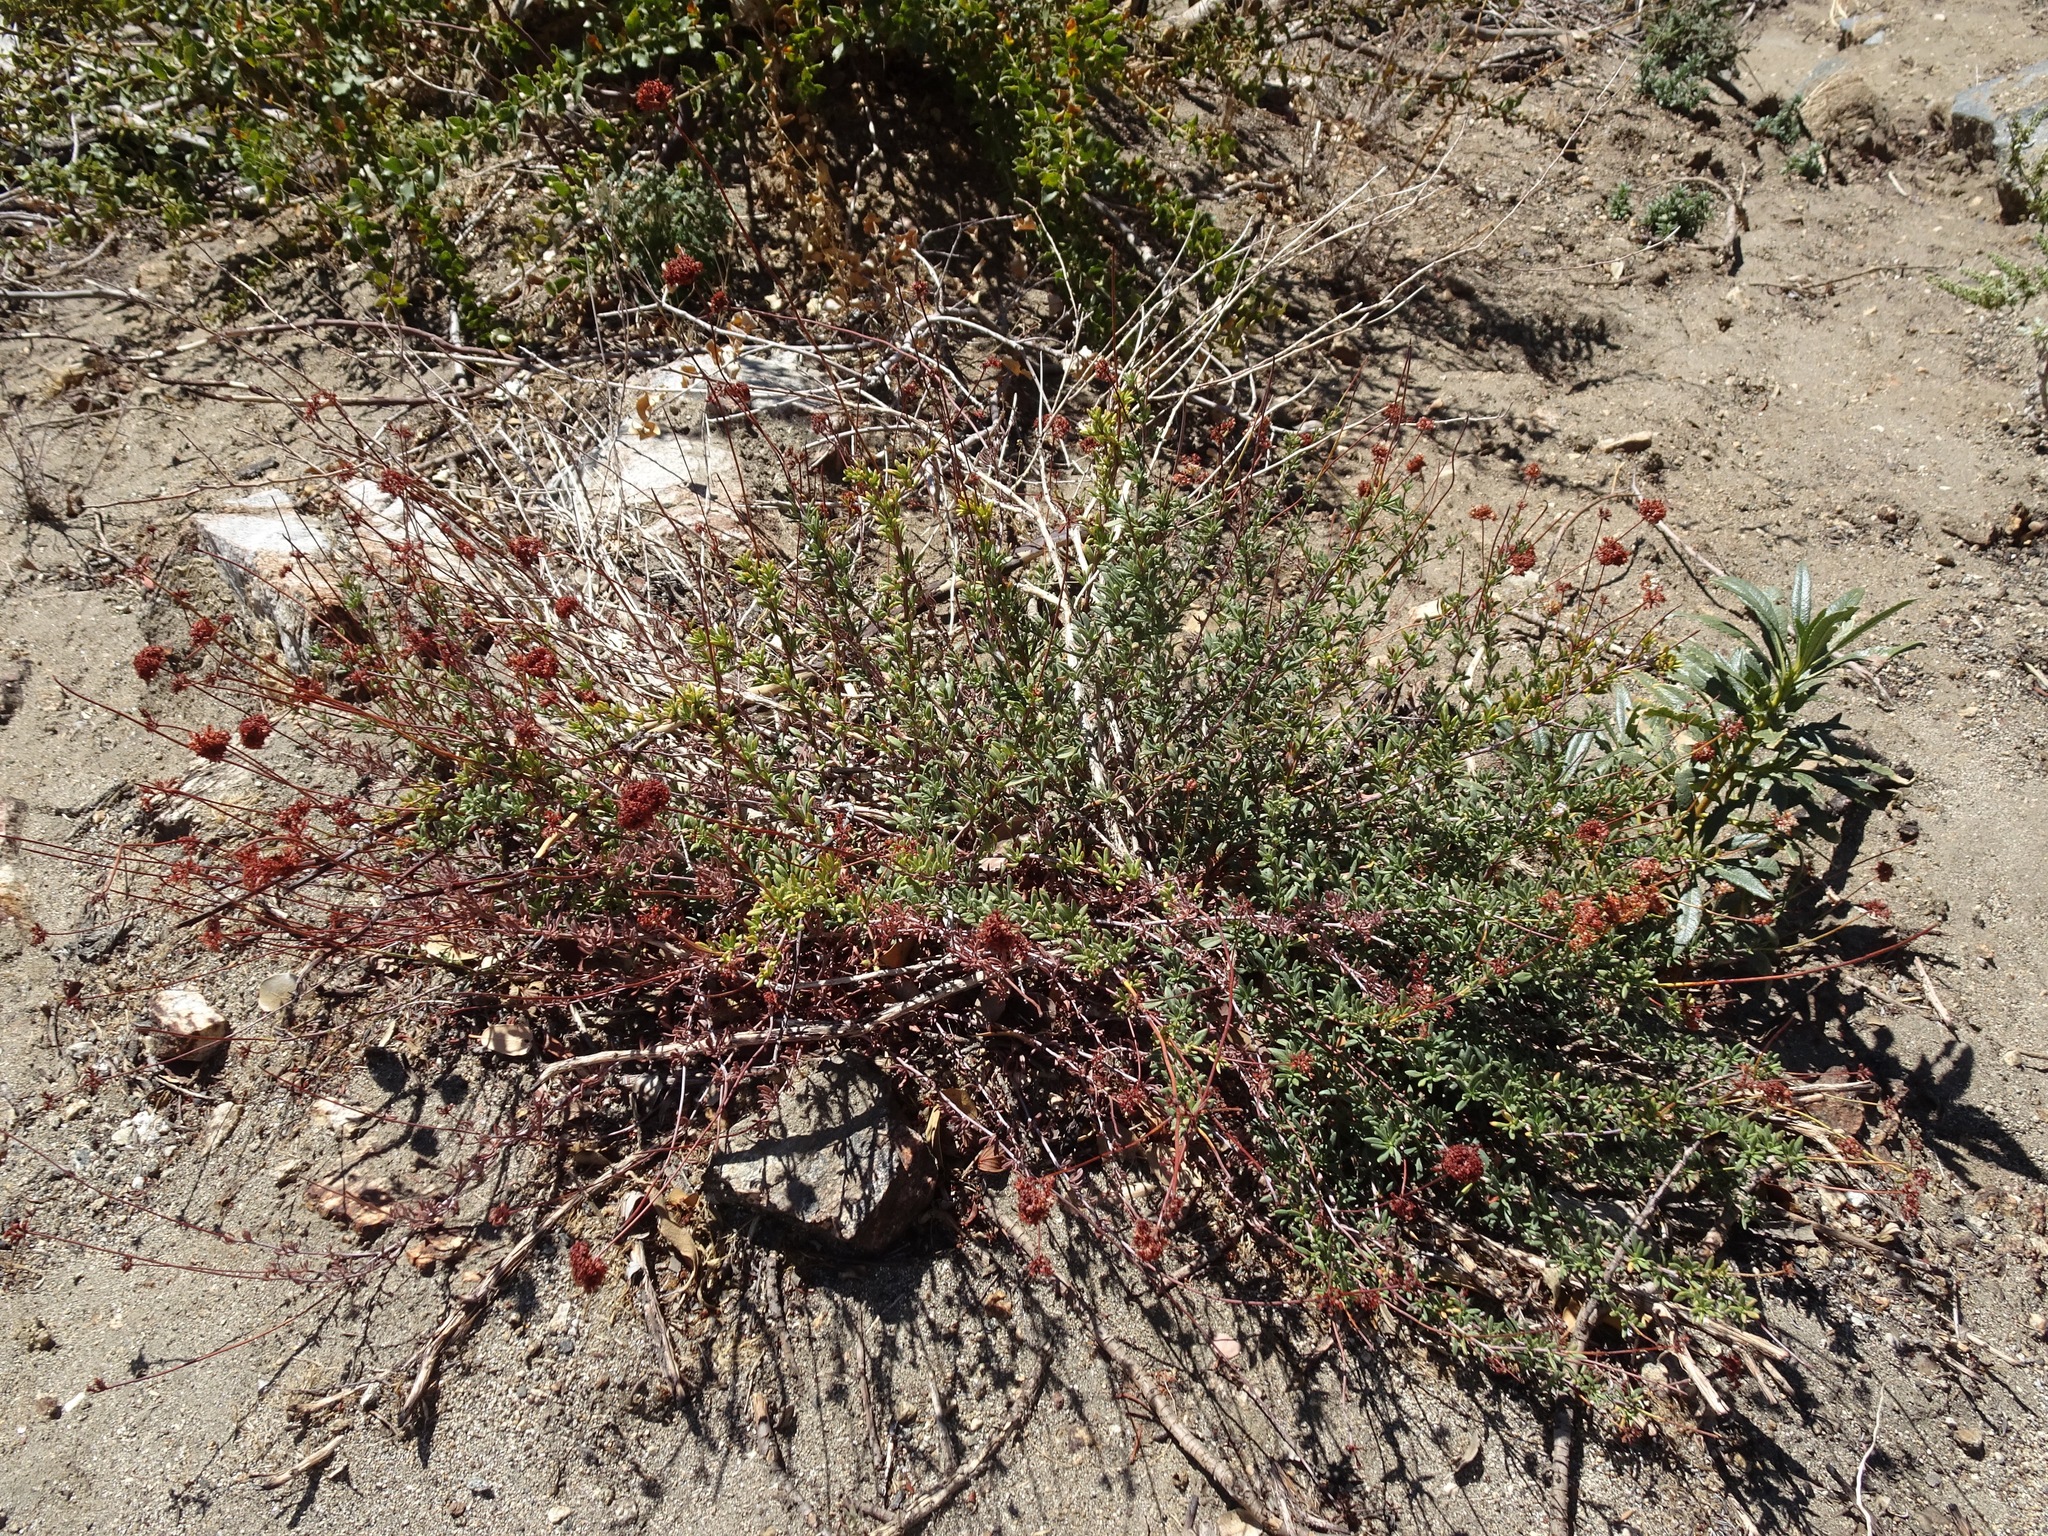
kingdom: Plantae
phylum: Tracheophyta
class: Magnoliopsida
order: Caryophyllales
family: Polygonaceae
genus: Eriogonum
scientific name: Eriogonum fasciculatum
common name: California wild buckwheat
